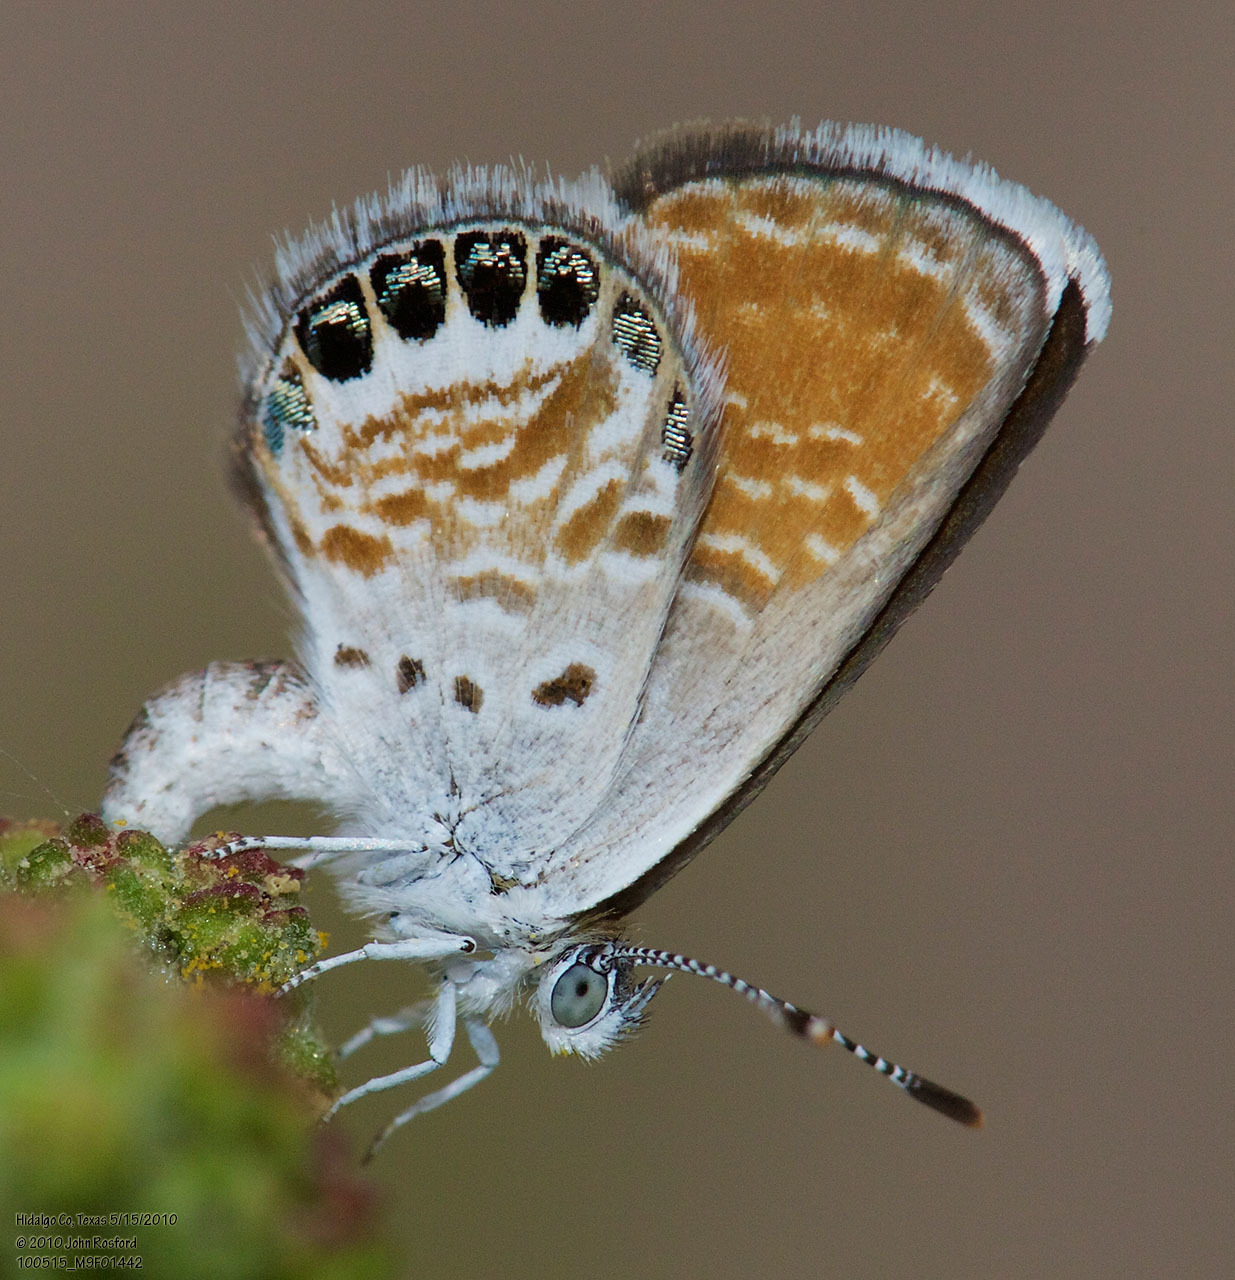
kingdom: Animalia
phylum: Arthropoda
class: Insecta
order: Lepidoptera
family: Lycaenidae
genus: Brephidium
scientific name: Brephidium exilis
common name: Pygmy blue
